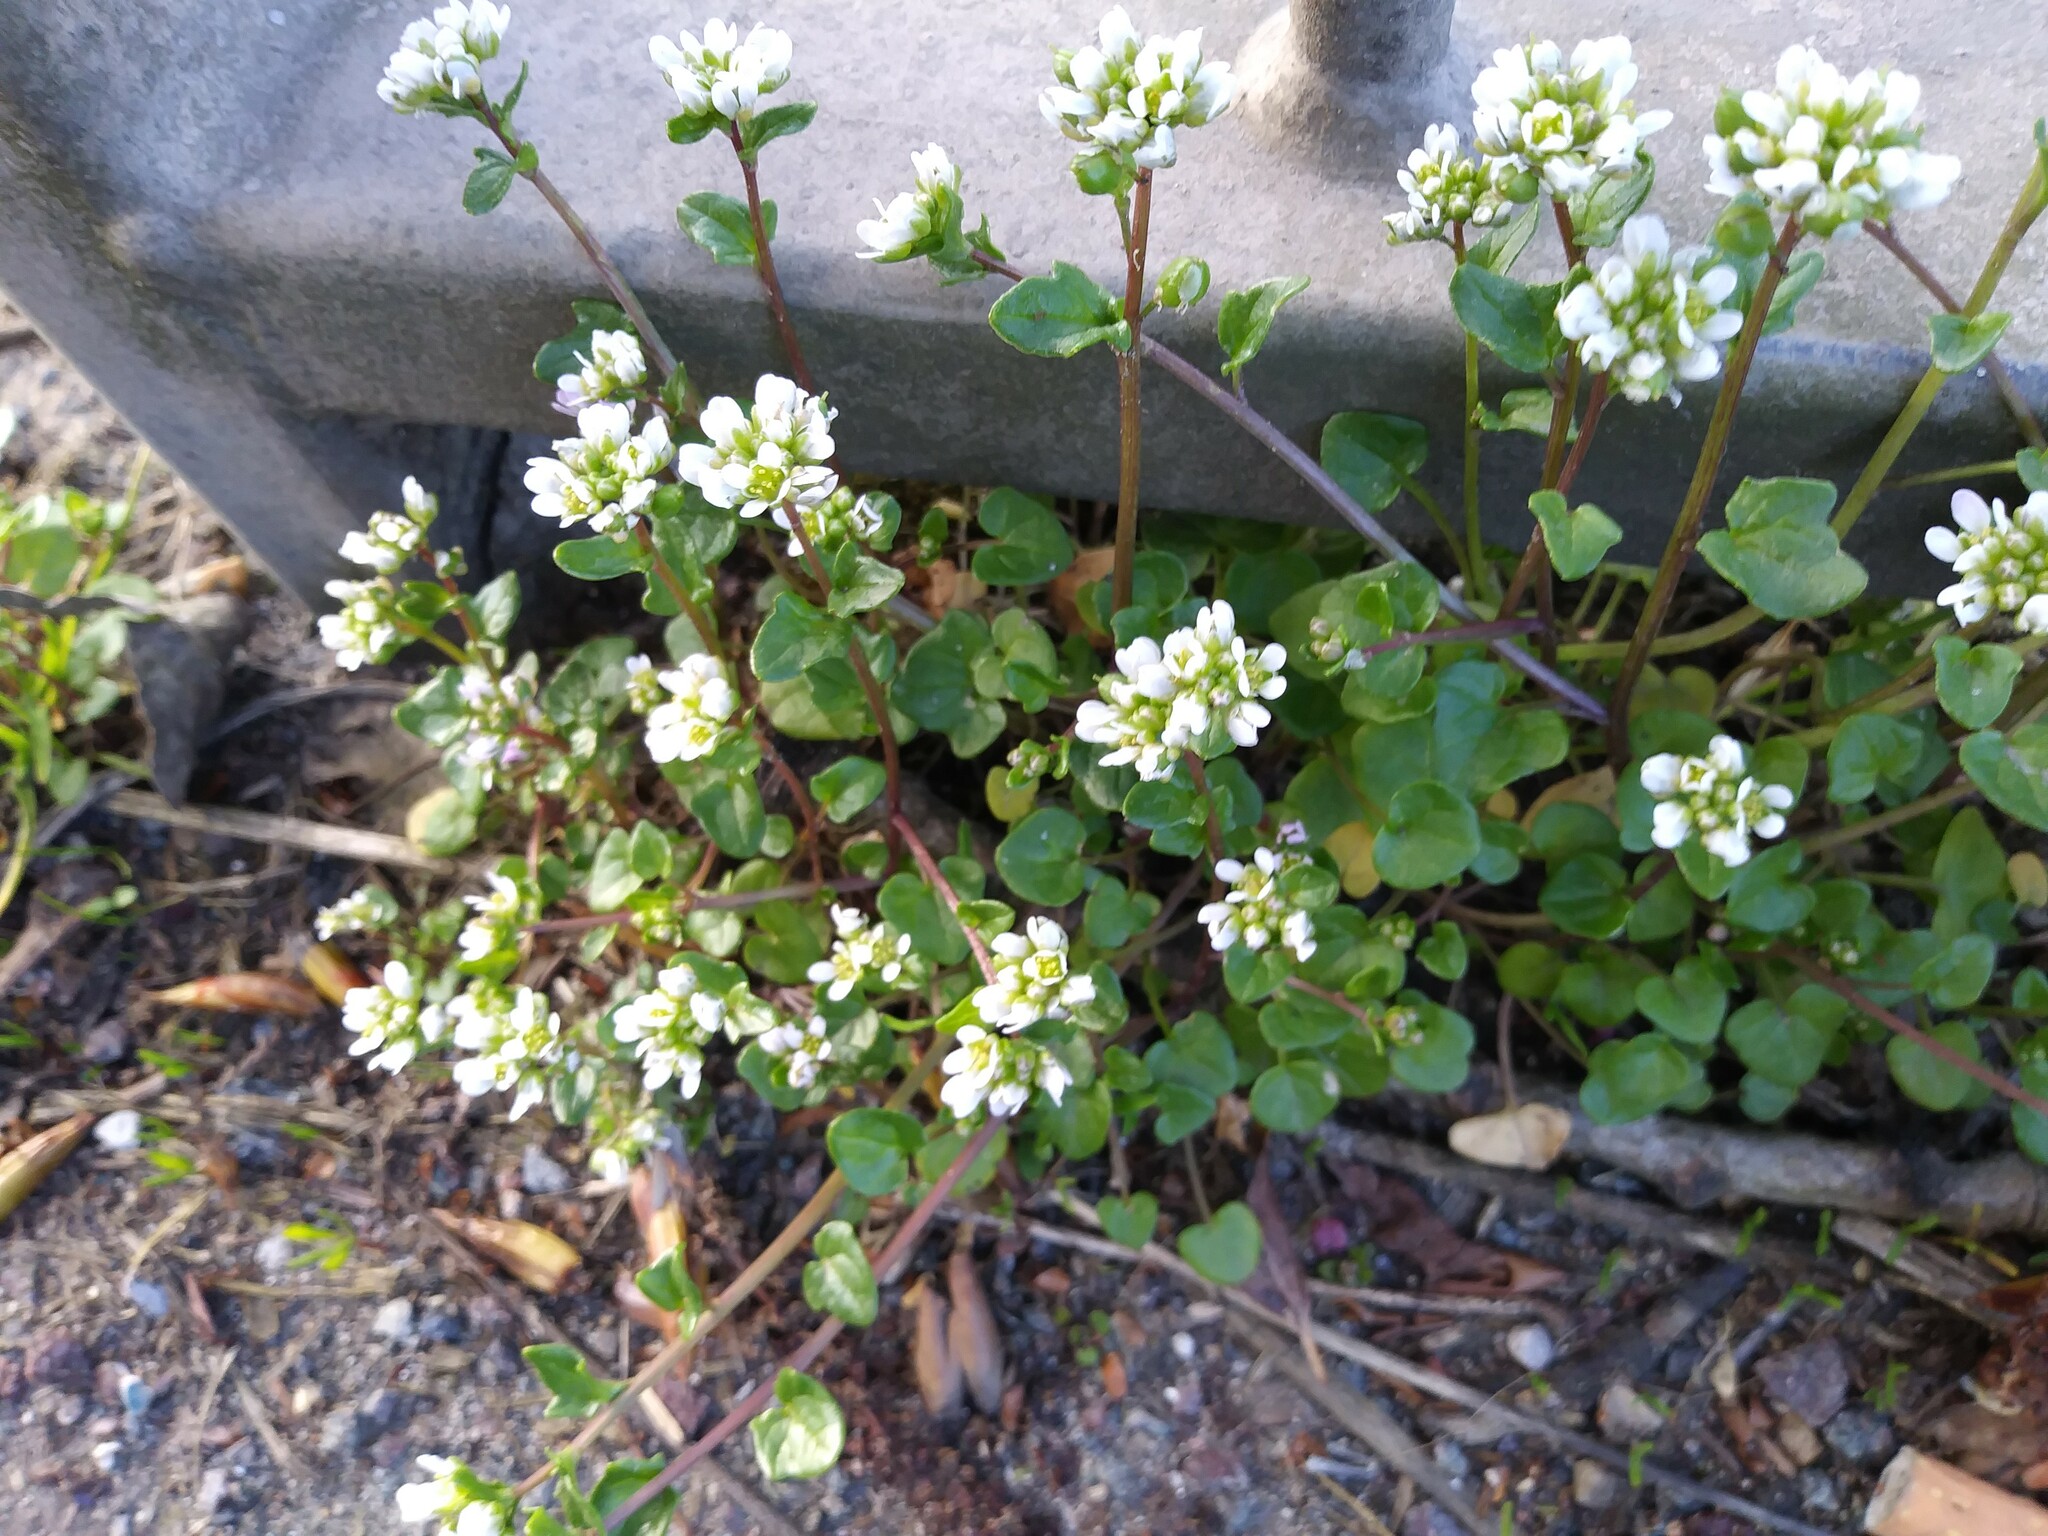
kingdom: Plantae
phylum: Tracheophyta
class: Magnoliopsida
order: Brassicales
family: Brassicaceae
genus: Cochlearia
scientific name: Cochlearia danica
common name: Early scurvygrass
